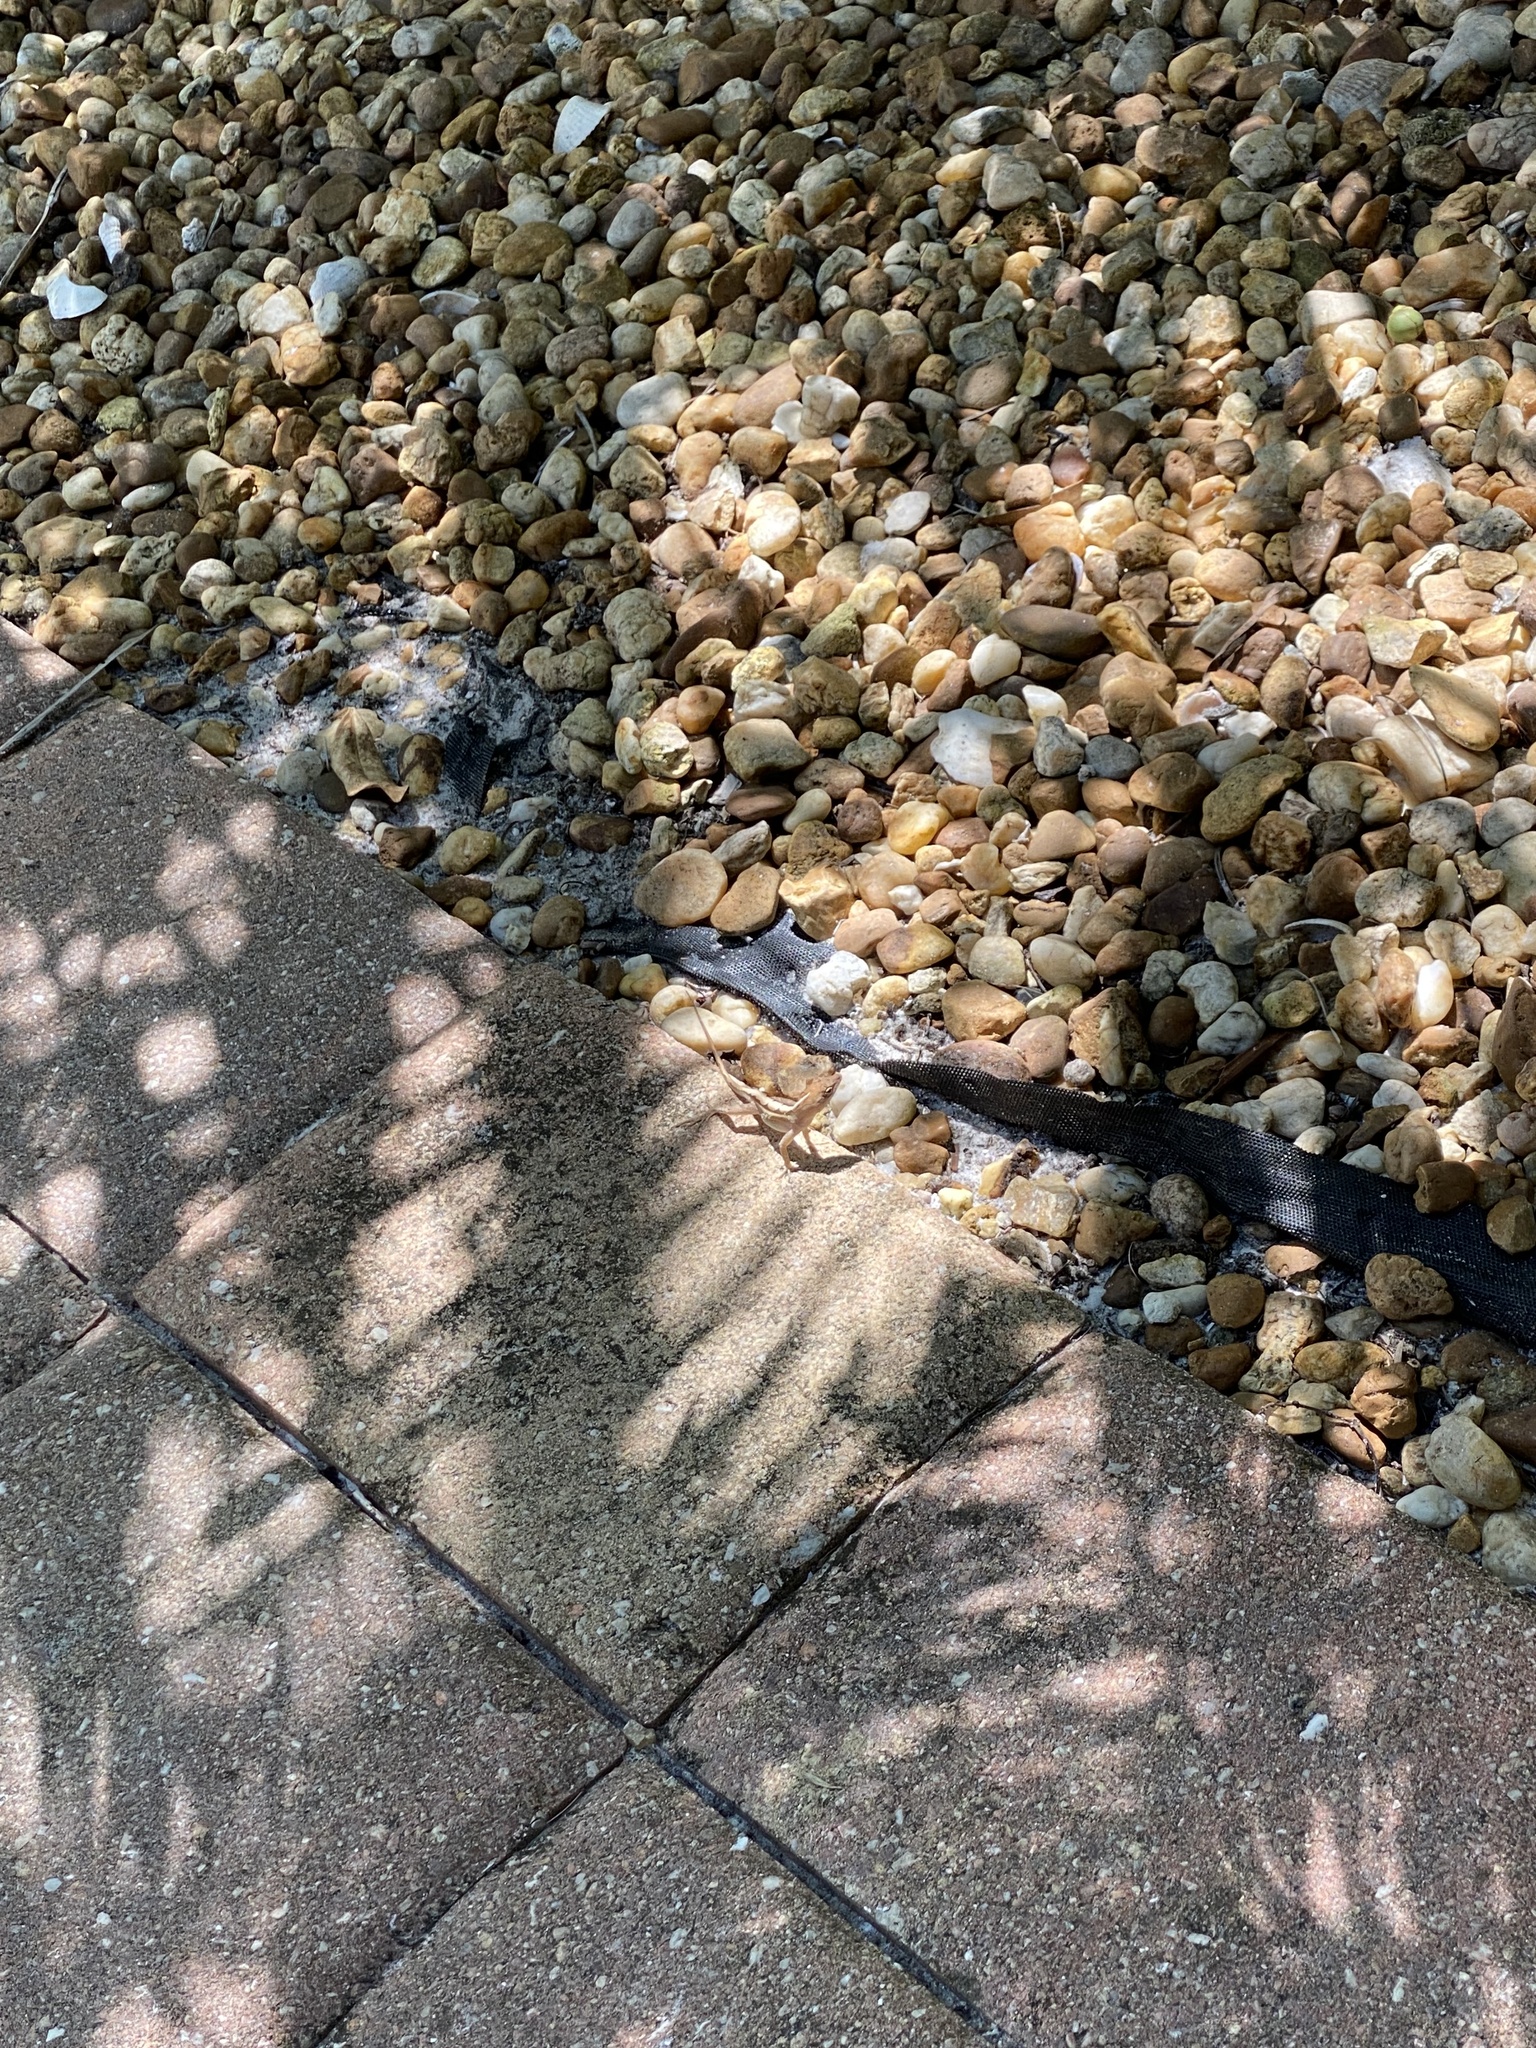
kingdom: Animalia
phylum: Chordata
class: Squamata
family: Dactyloidae
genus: Anolis
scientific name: Anolis sagrei
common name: Brown anole
